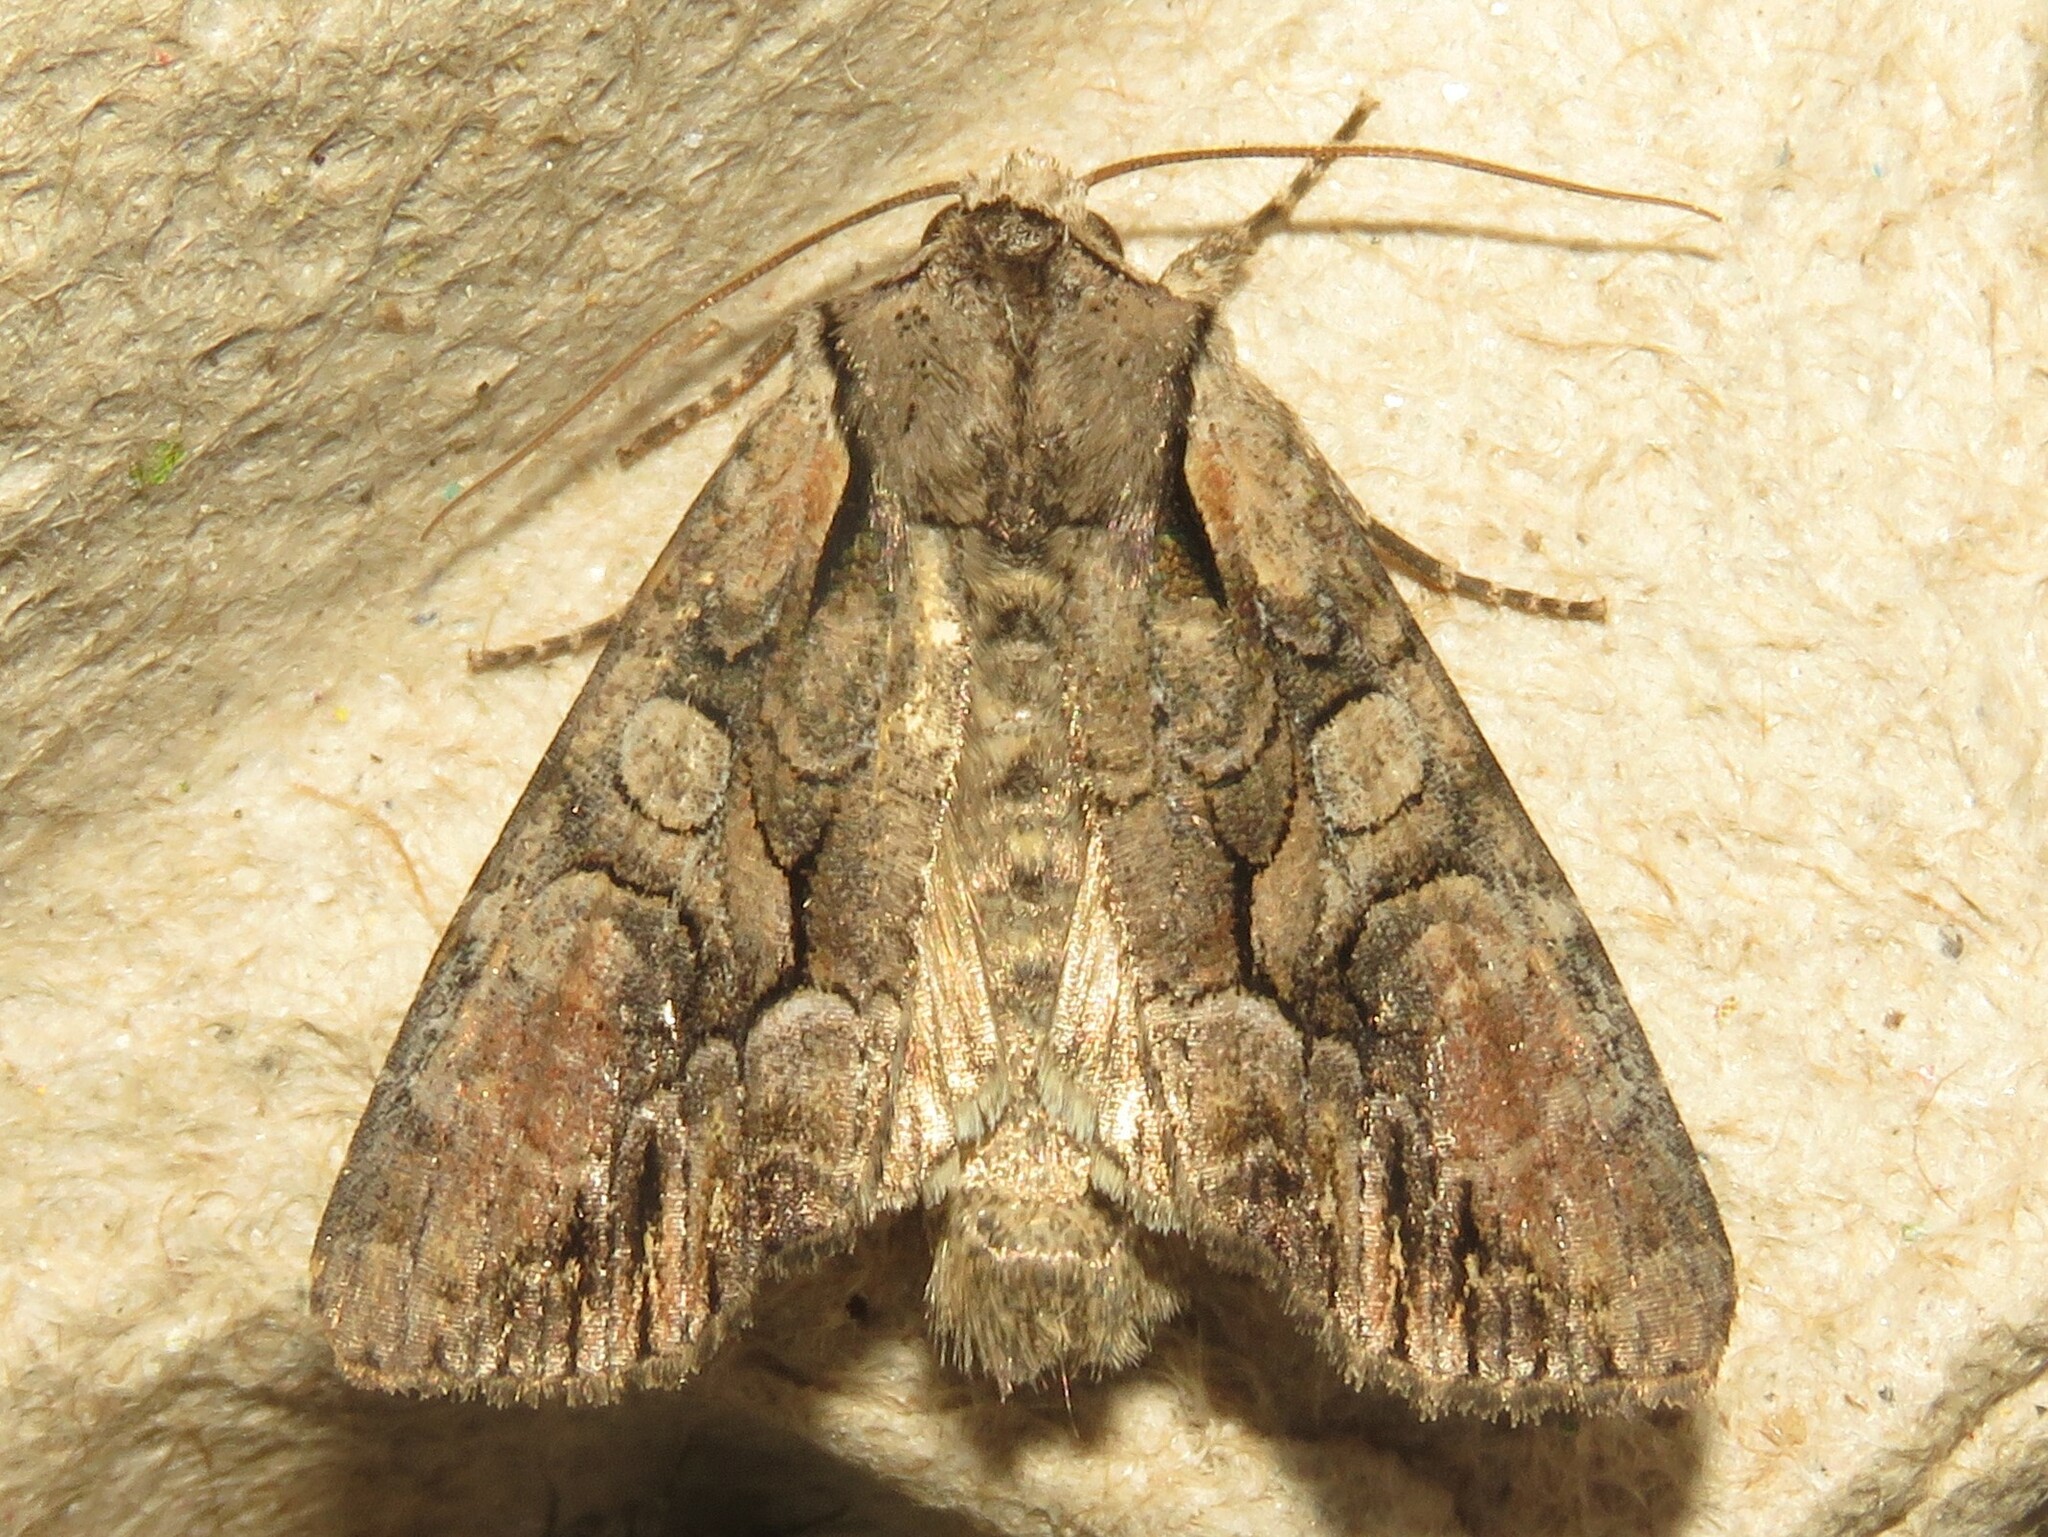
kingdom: Animalia
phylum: Arthropoda
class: Insecta
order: Lepidoptera
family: Noctuidae
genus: Lacanobia
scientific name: Lacanobia subjuncta
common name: Speckled cutworm moth
